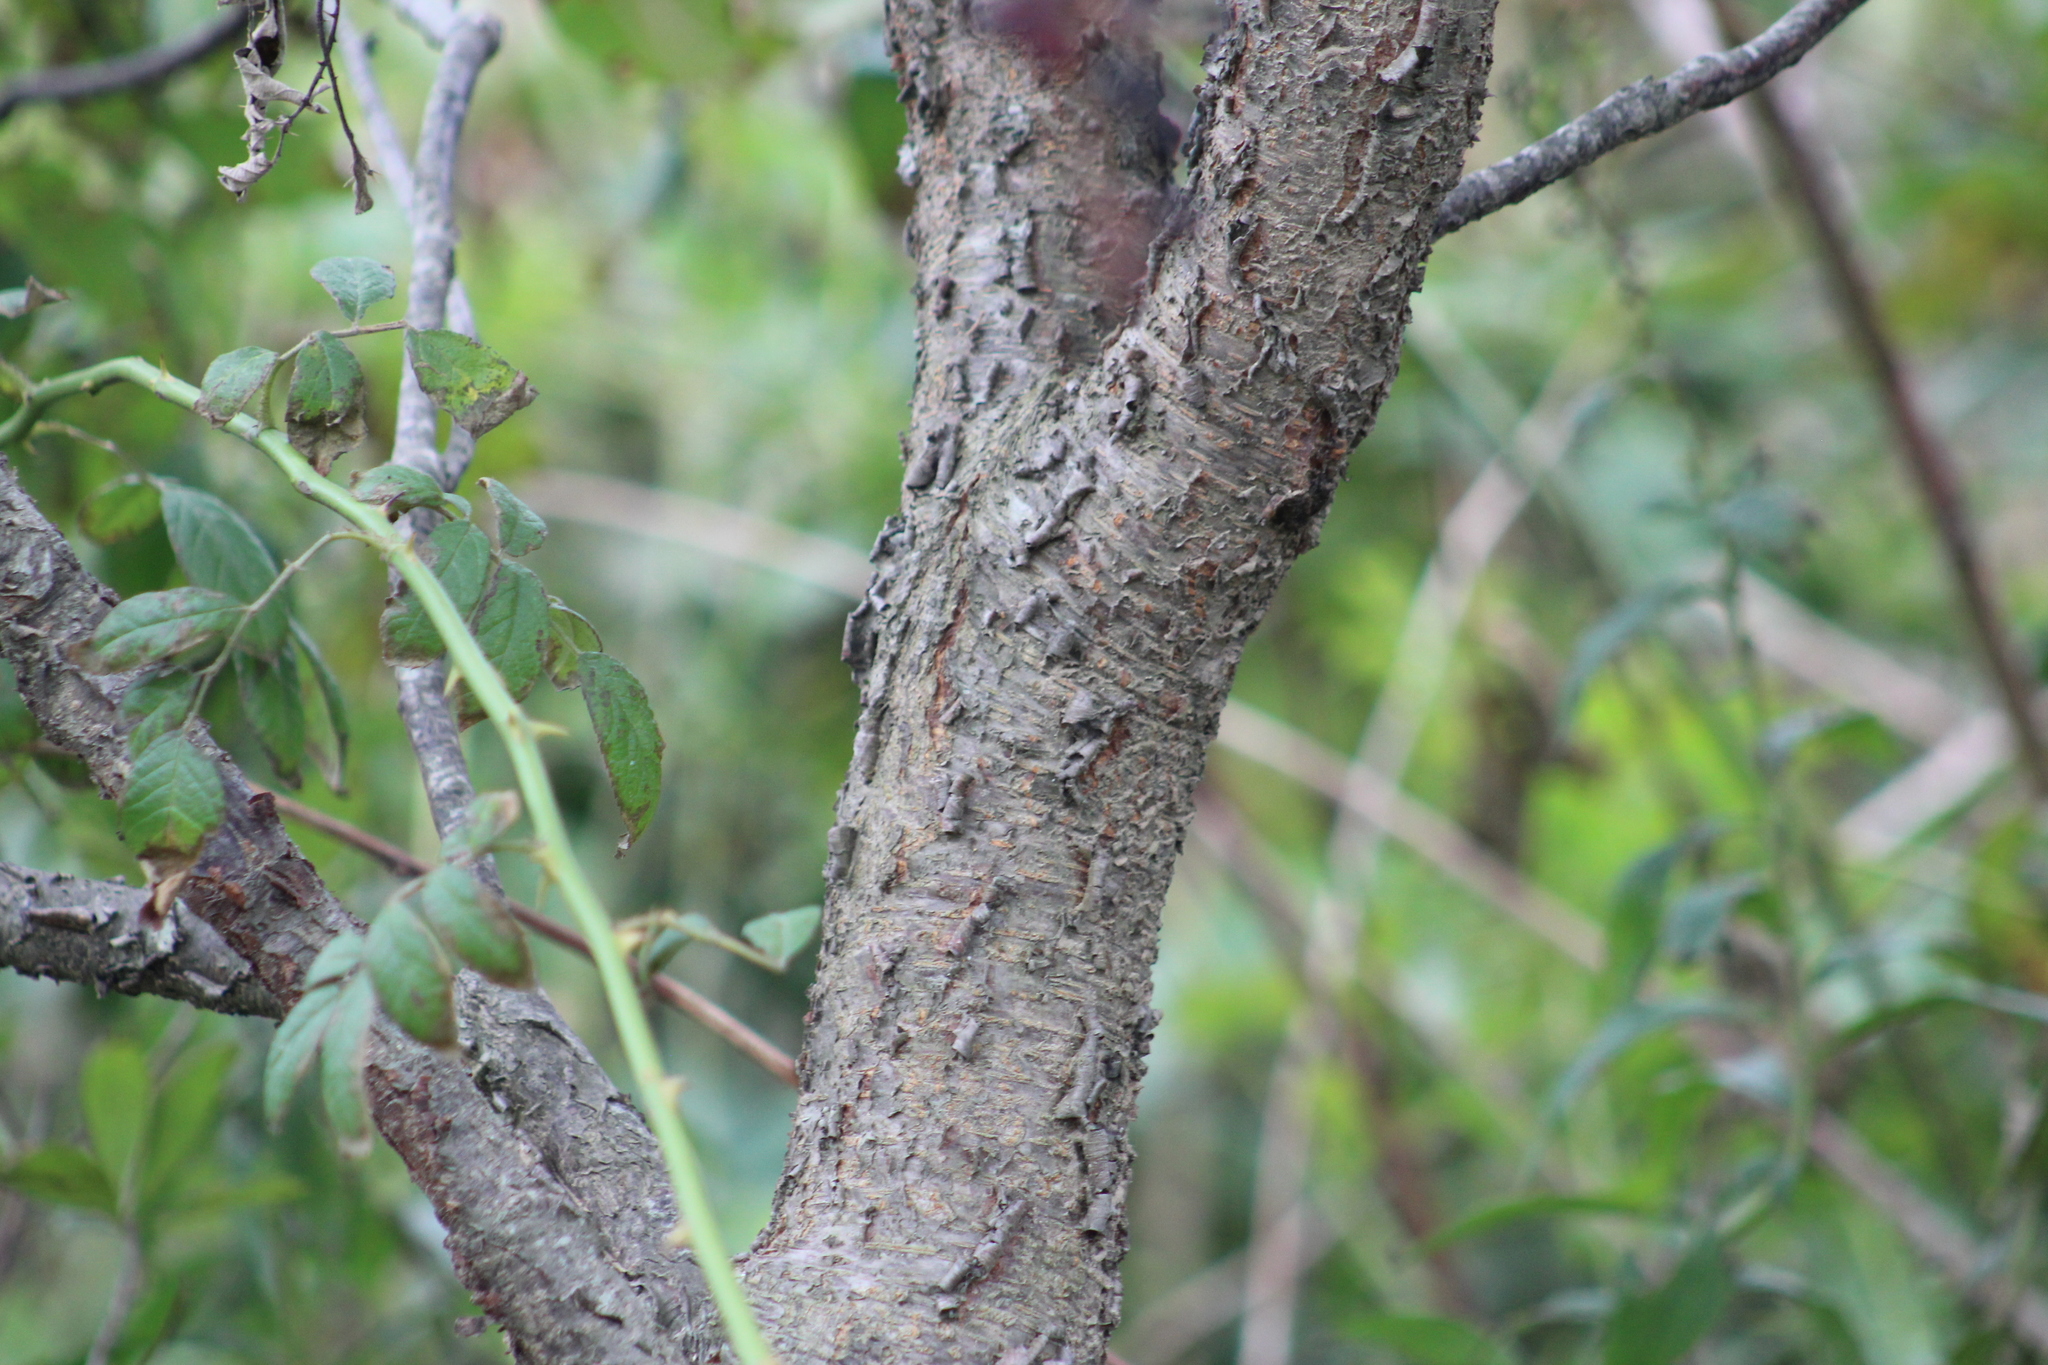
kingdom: Plantae
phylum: Tracheophyta
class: Magnoliopsida
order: Rosales
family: Rosaceae
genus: Prunus
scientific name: Prunus serotina
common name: Black cherry
